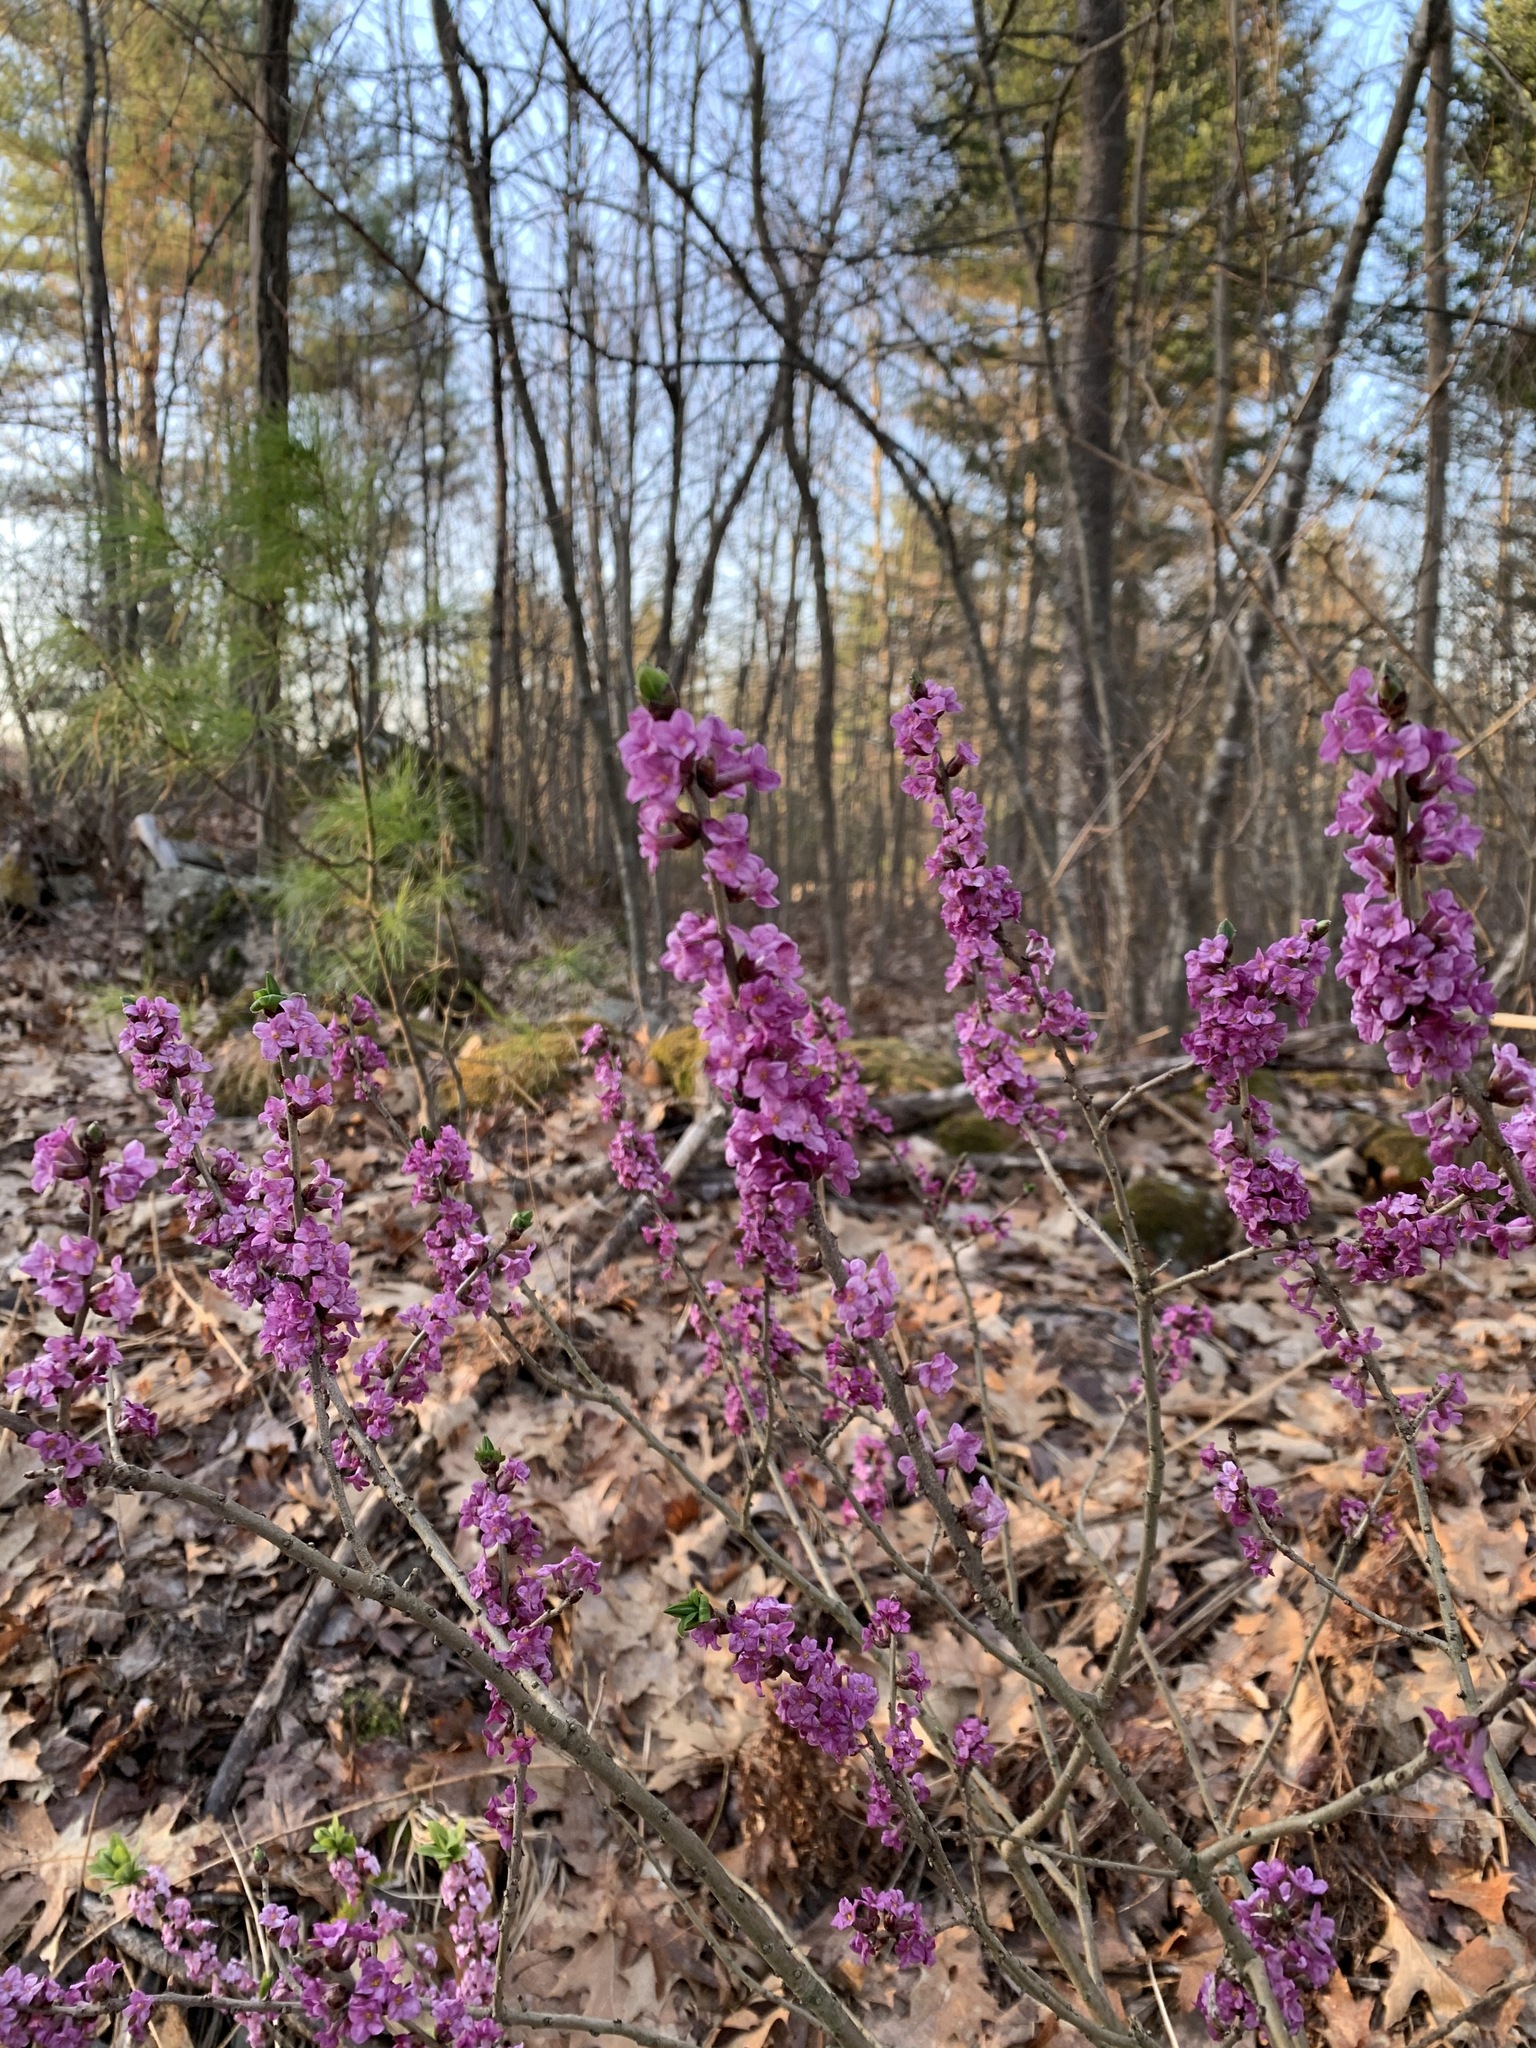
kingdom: Plantae
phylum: Tracheophyta
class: Magnoliopsida
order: Malvales
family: Thymelaeaceae
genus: Daphne
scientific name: Daphne mezereum
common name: Mezereon
